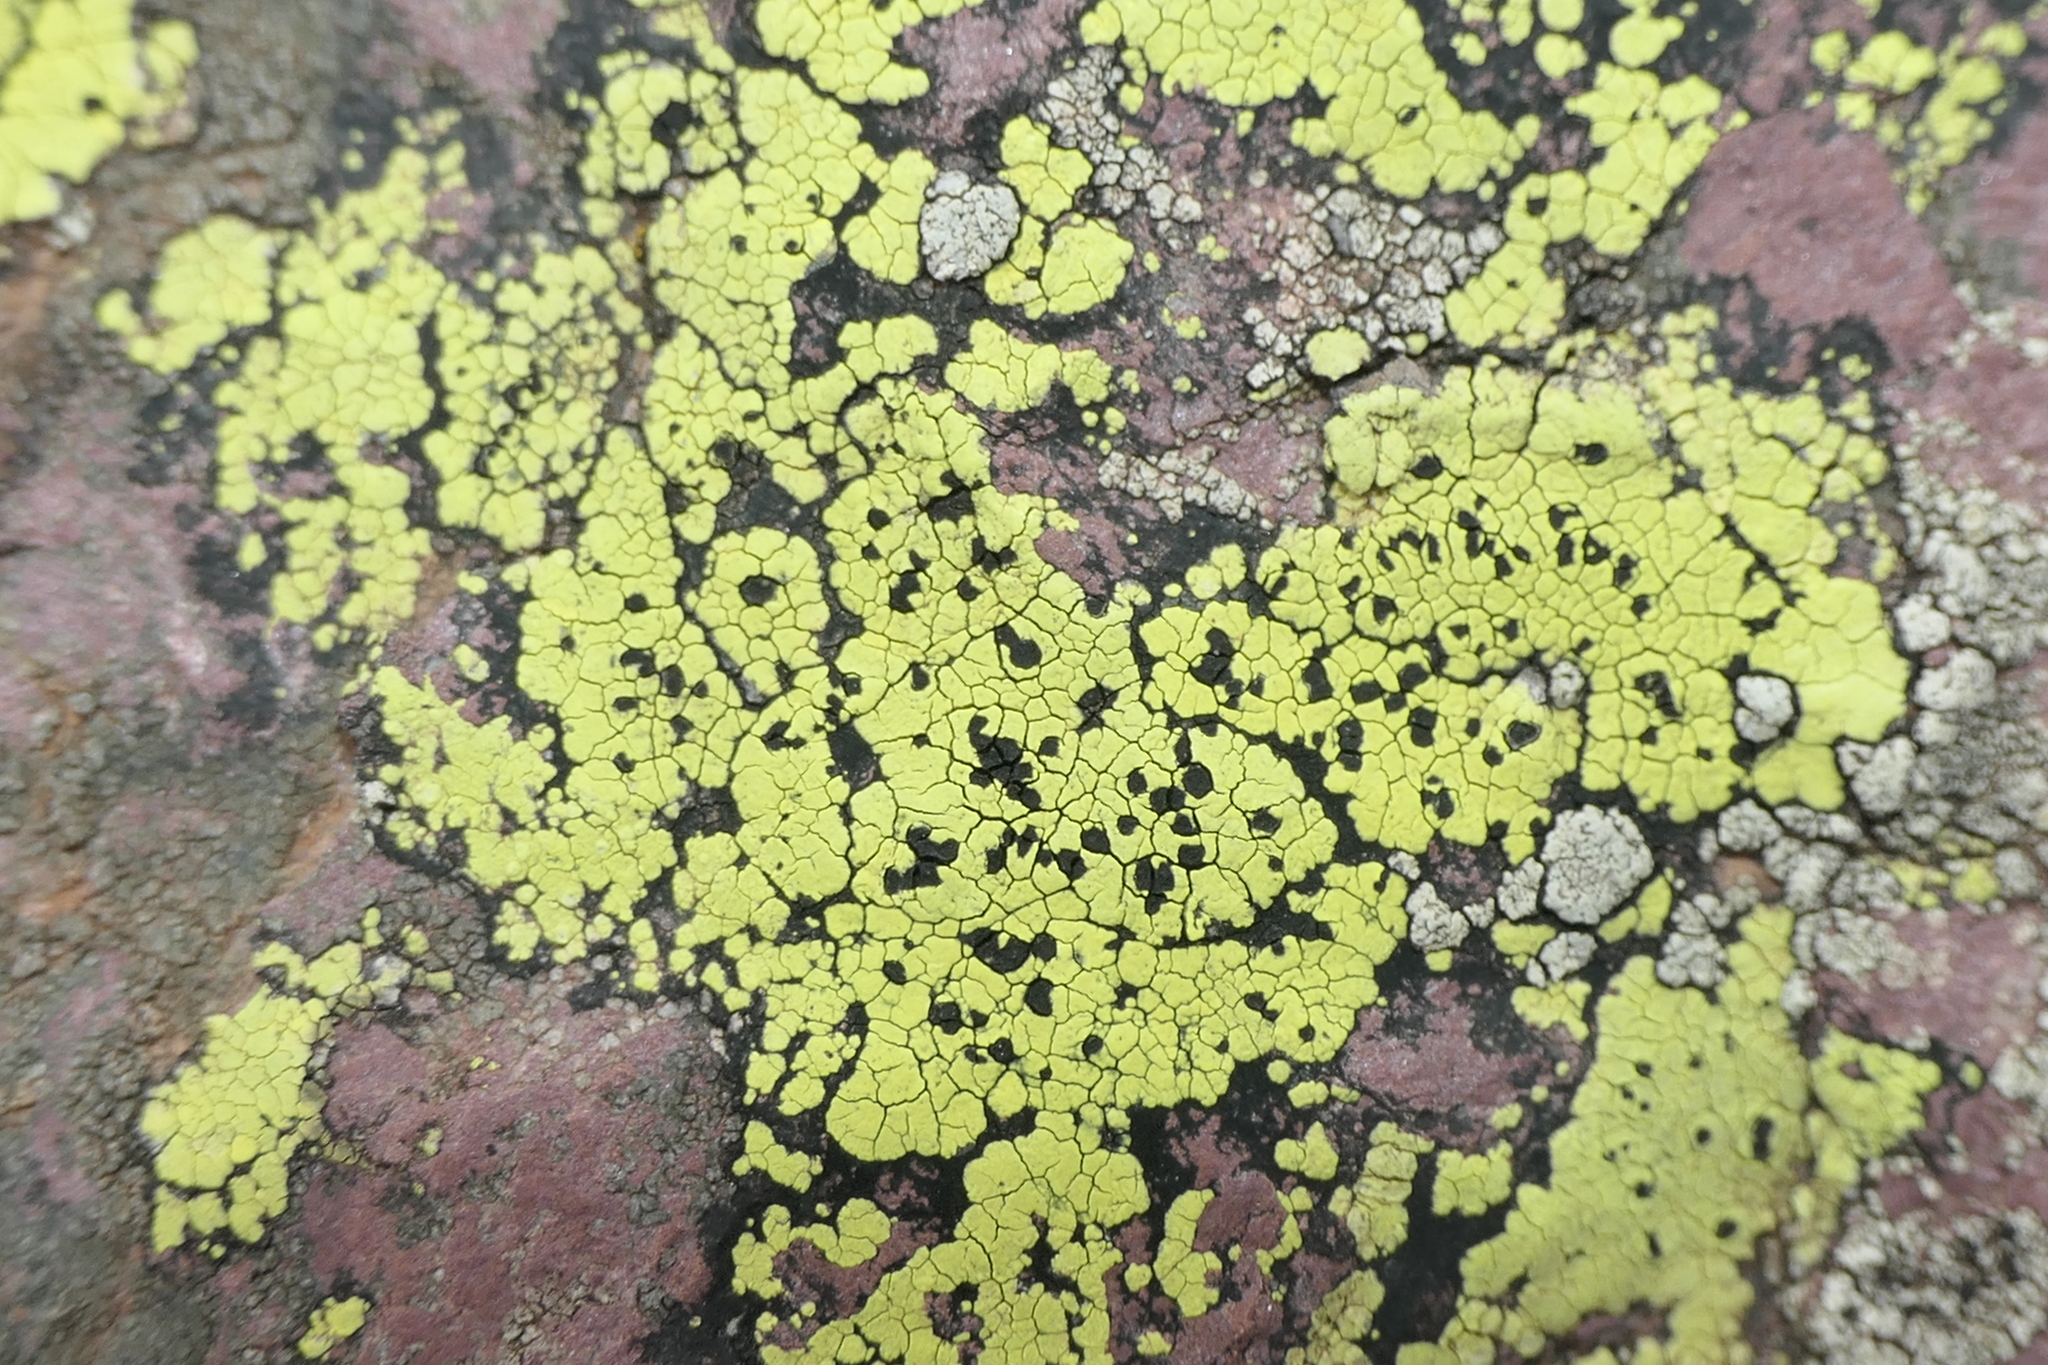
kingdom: Fungi
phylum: Ascomycota
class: Lecanoromycetes
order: Rhizocarpales
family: Rhizocarpaceae
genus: Rhizocarpon
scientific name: Rhizocarpon geographicum
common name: Yellow map lichen
